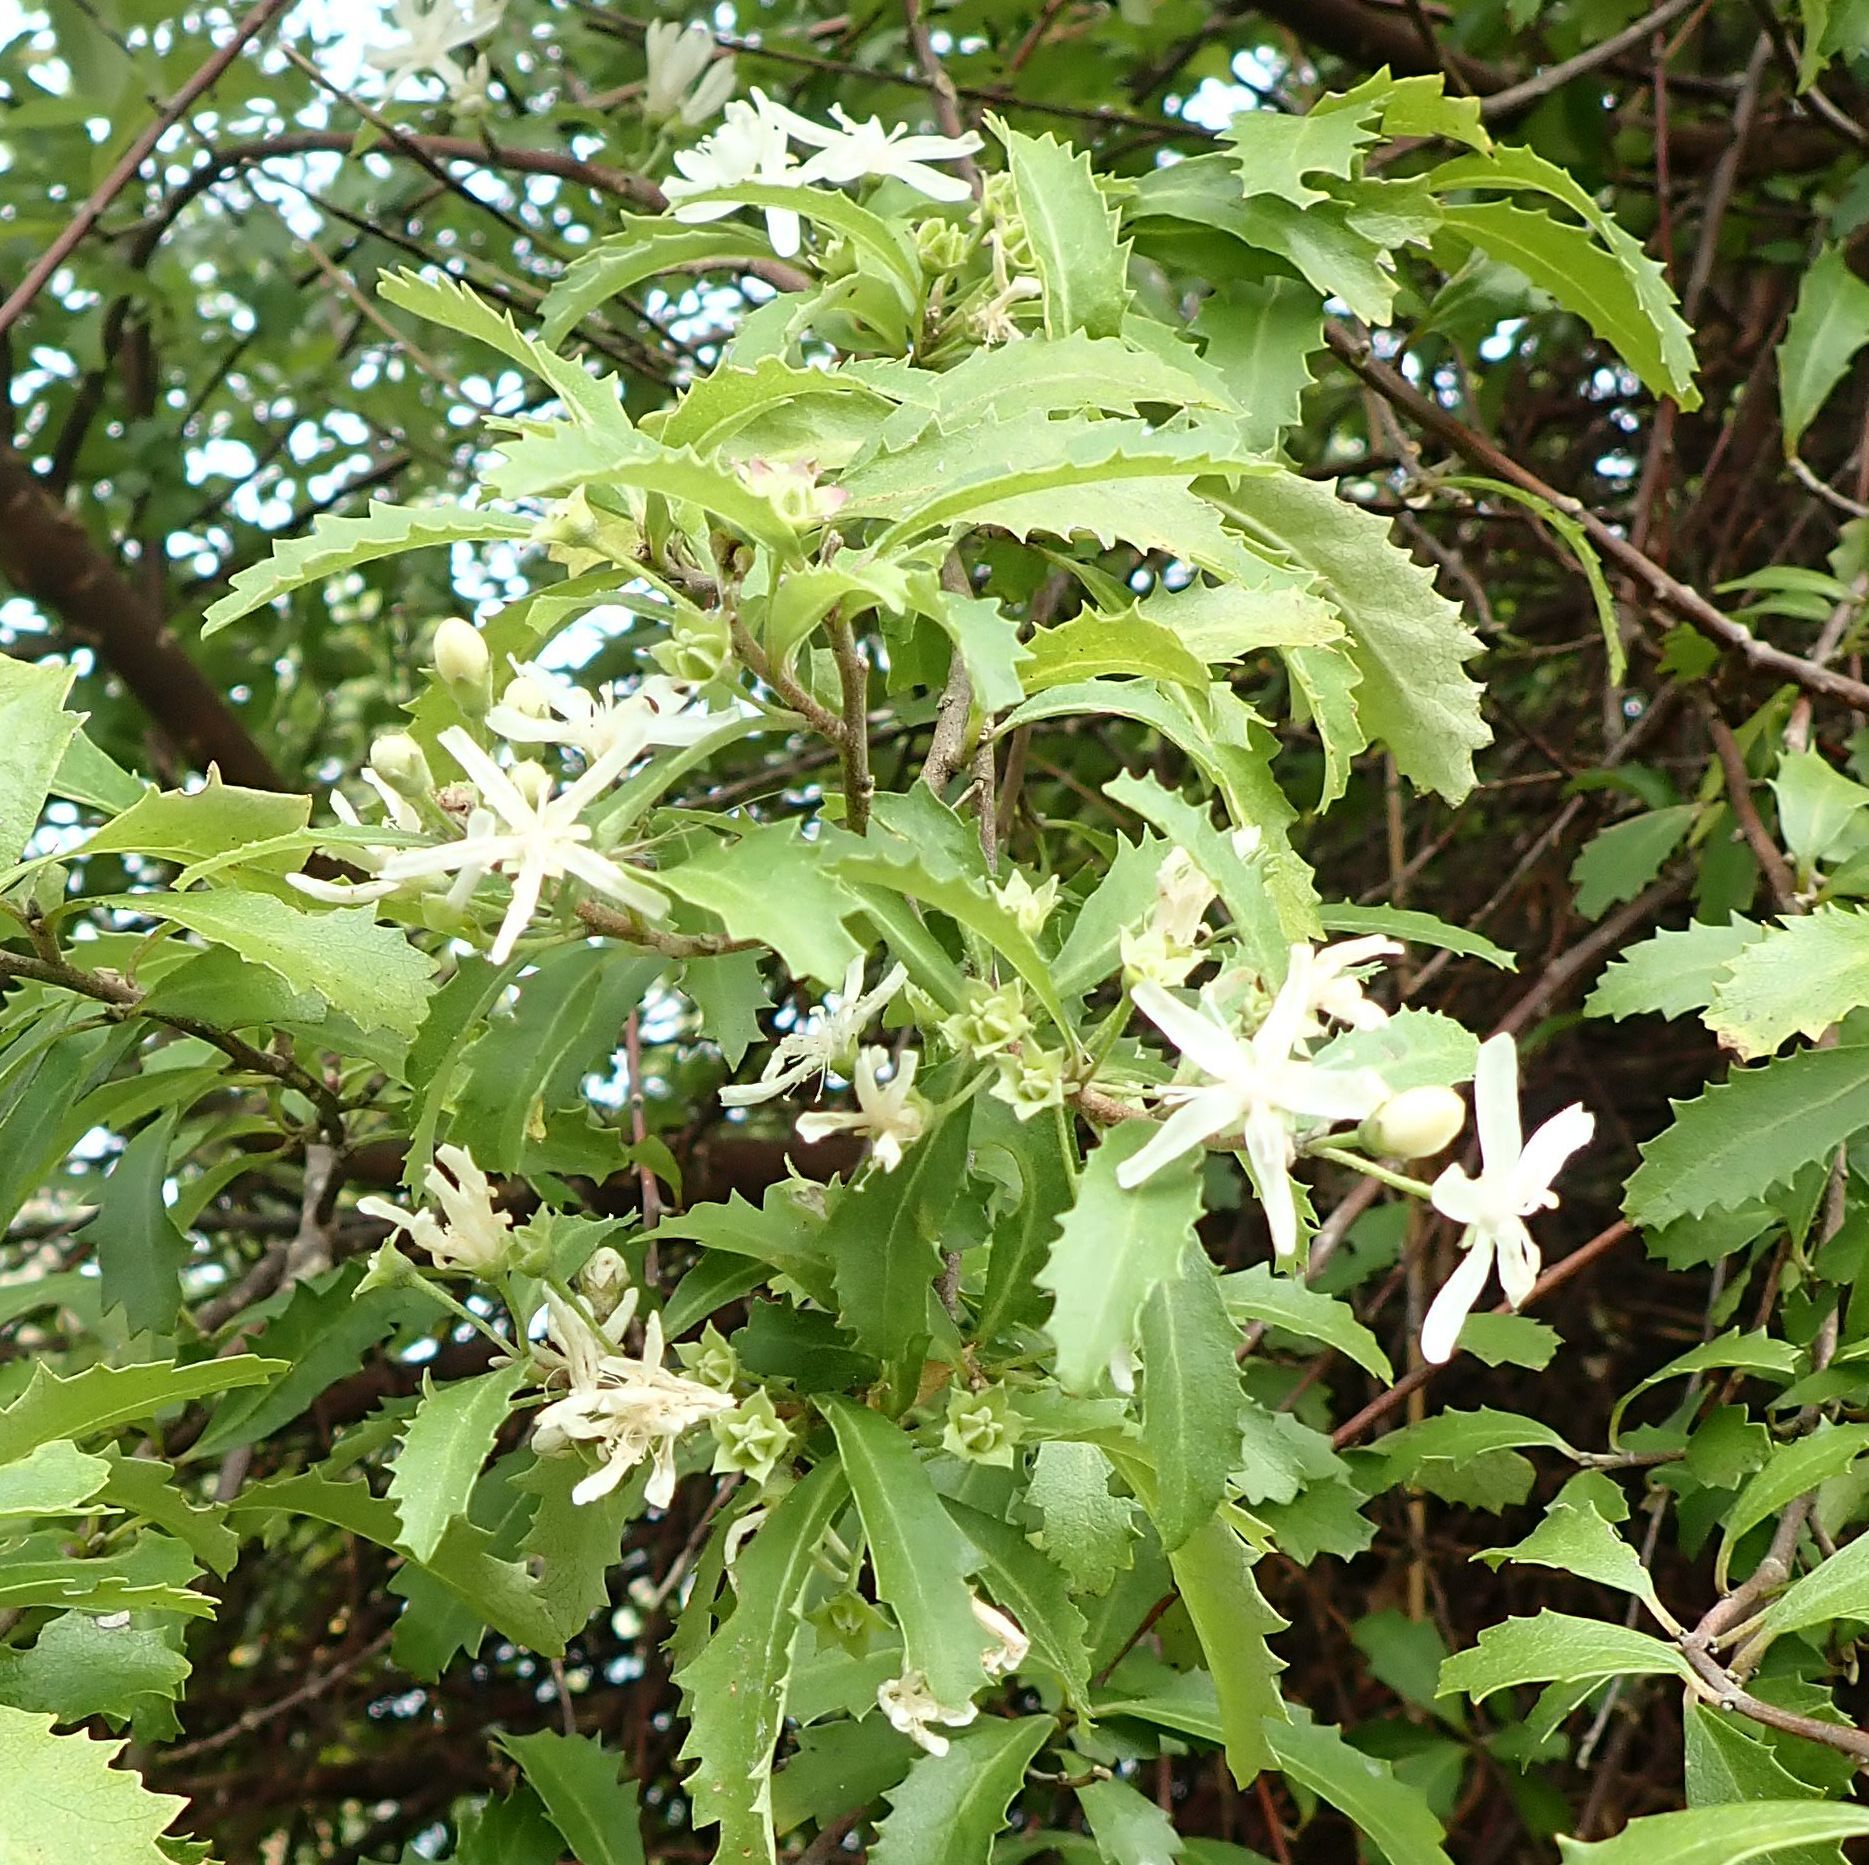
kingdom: Plantae
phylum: Tracheophyta
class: Magnoliopsida
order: Malvales
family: Malvaceae
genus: Hoheria
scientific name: Hoheria angustifolia
